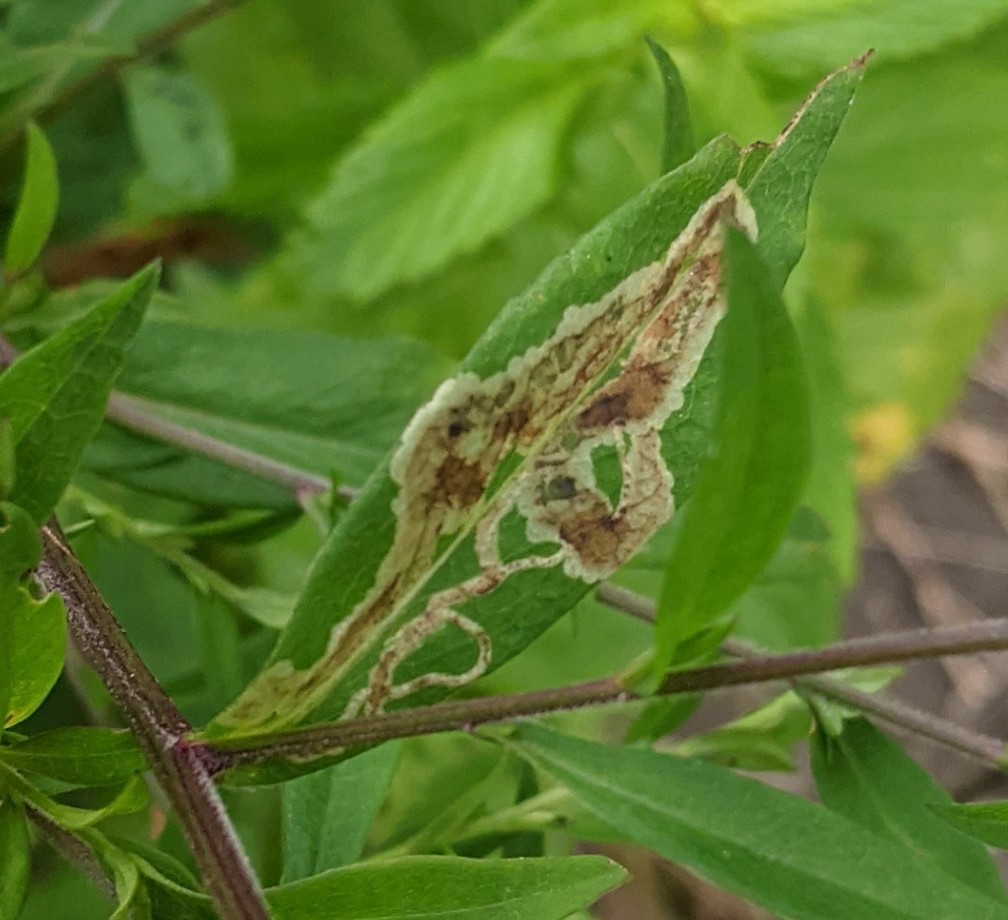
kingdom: Animalia
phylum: Arthropoda
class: Insecta
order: Diptera
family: Agromyzidae
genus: Ophiomyia
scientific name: Ophiomyia carolinensis
